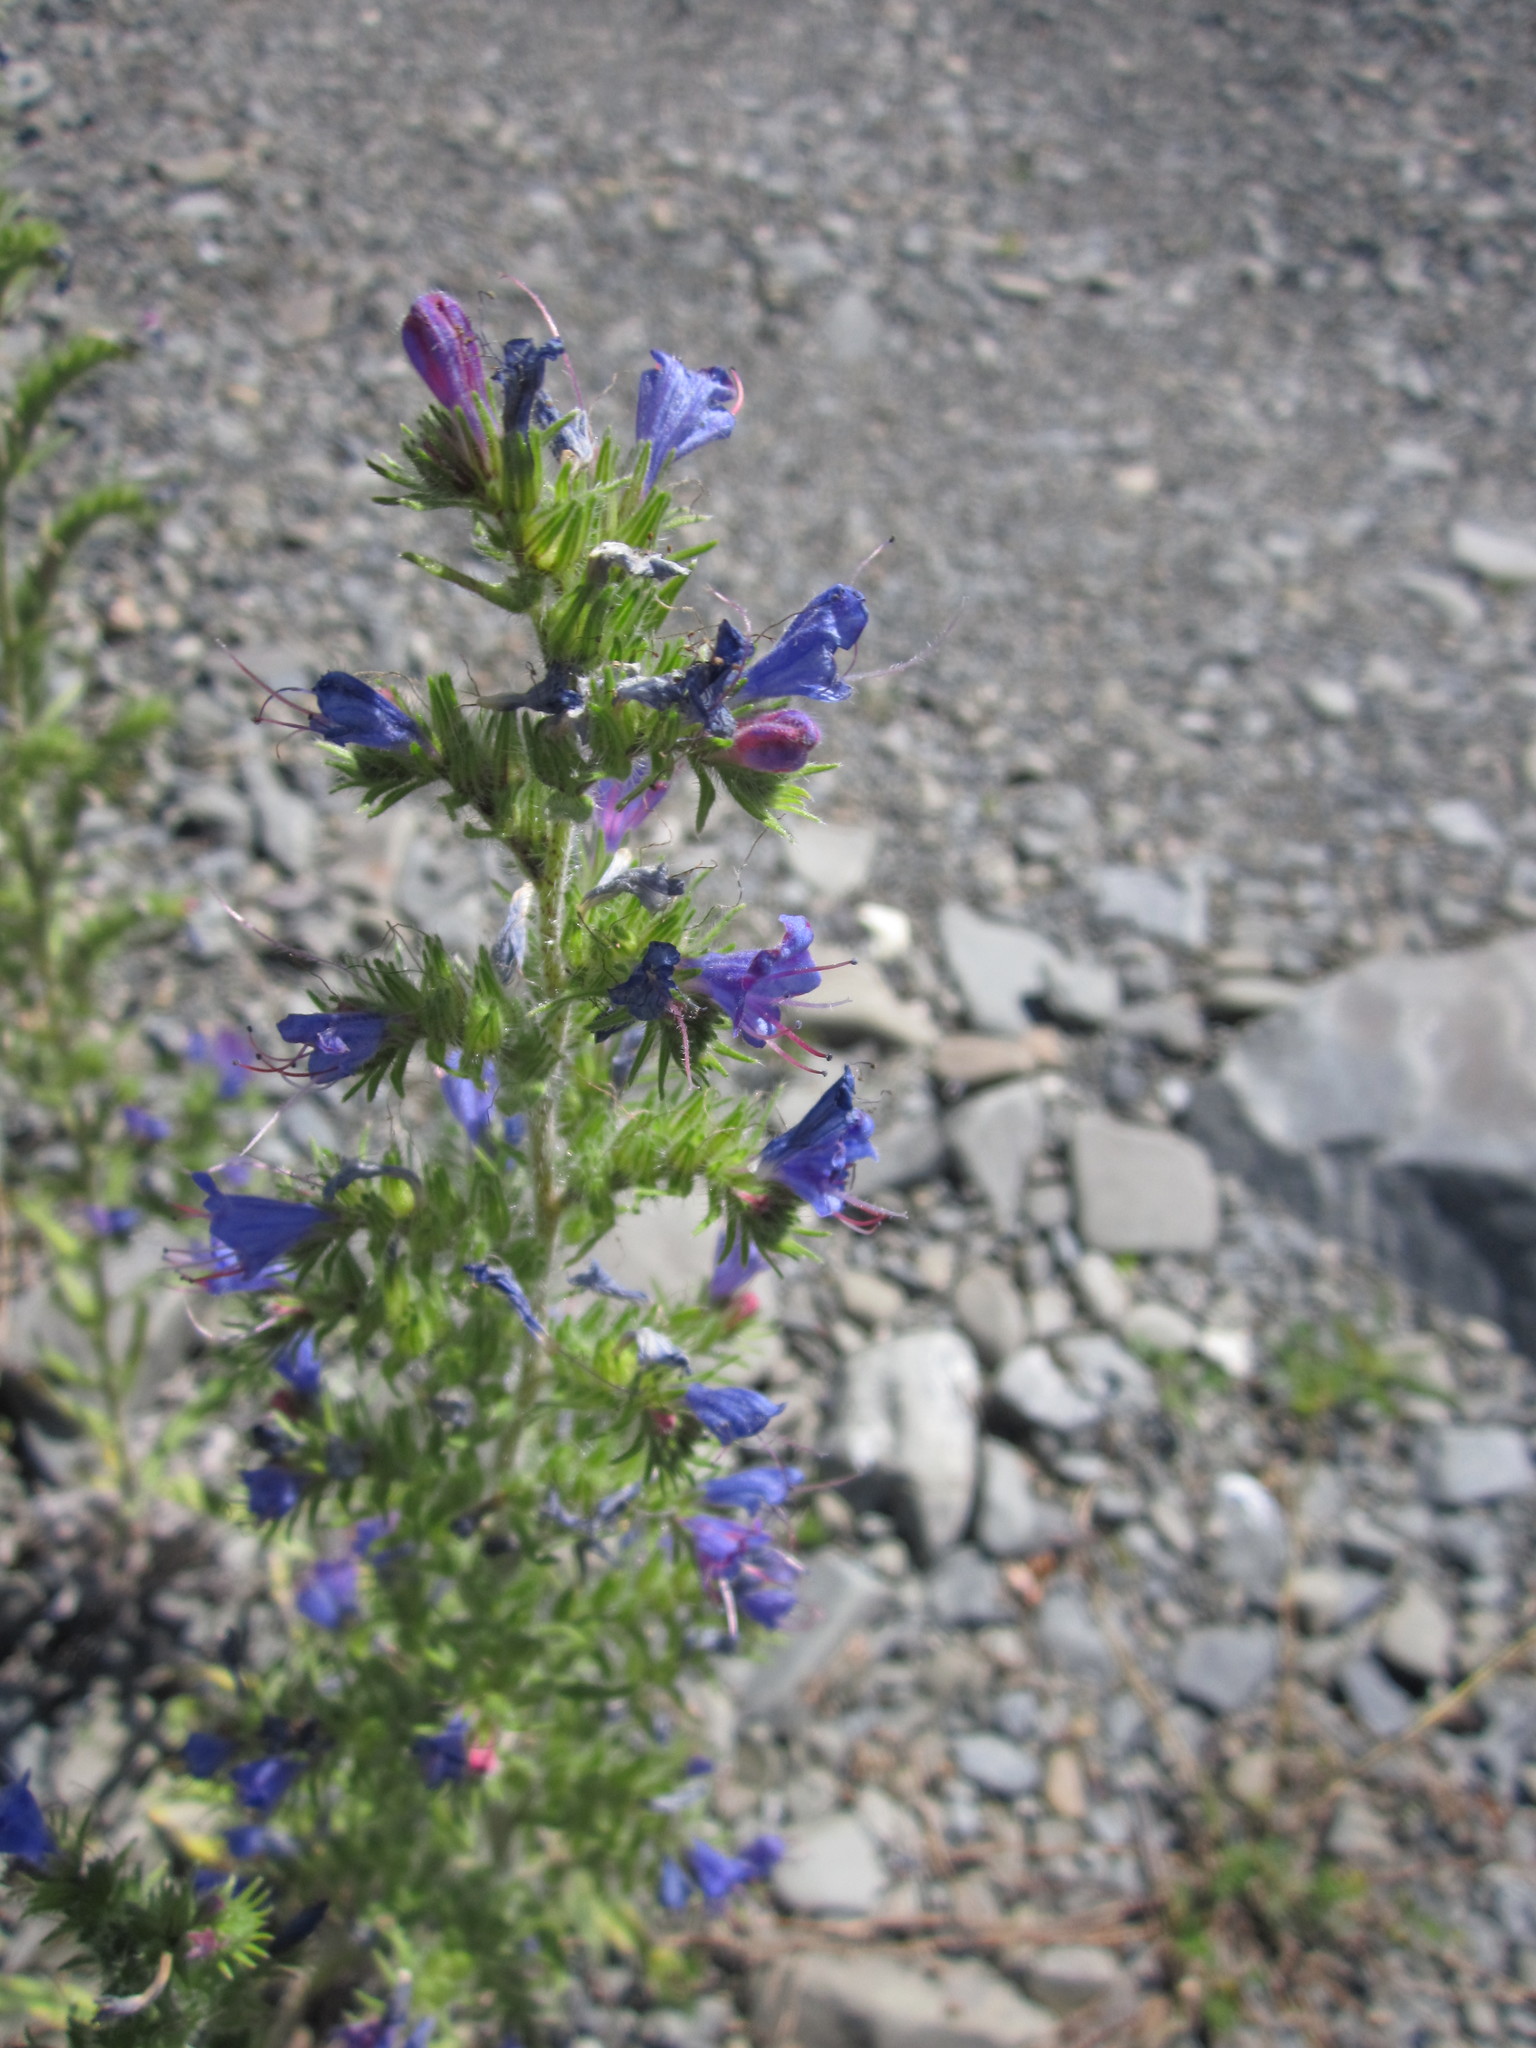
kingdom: Plantae
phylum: Tracheophyta
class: Magnoliopsida
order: Boraginales
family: Boraginaceae
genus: Echium
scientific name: Echium vulgare
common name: Common viper's bugloss
